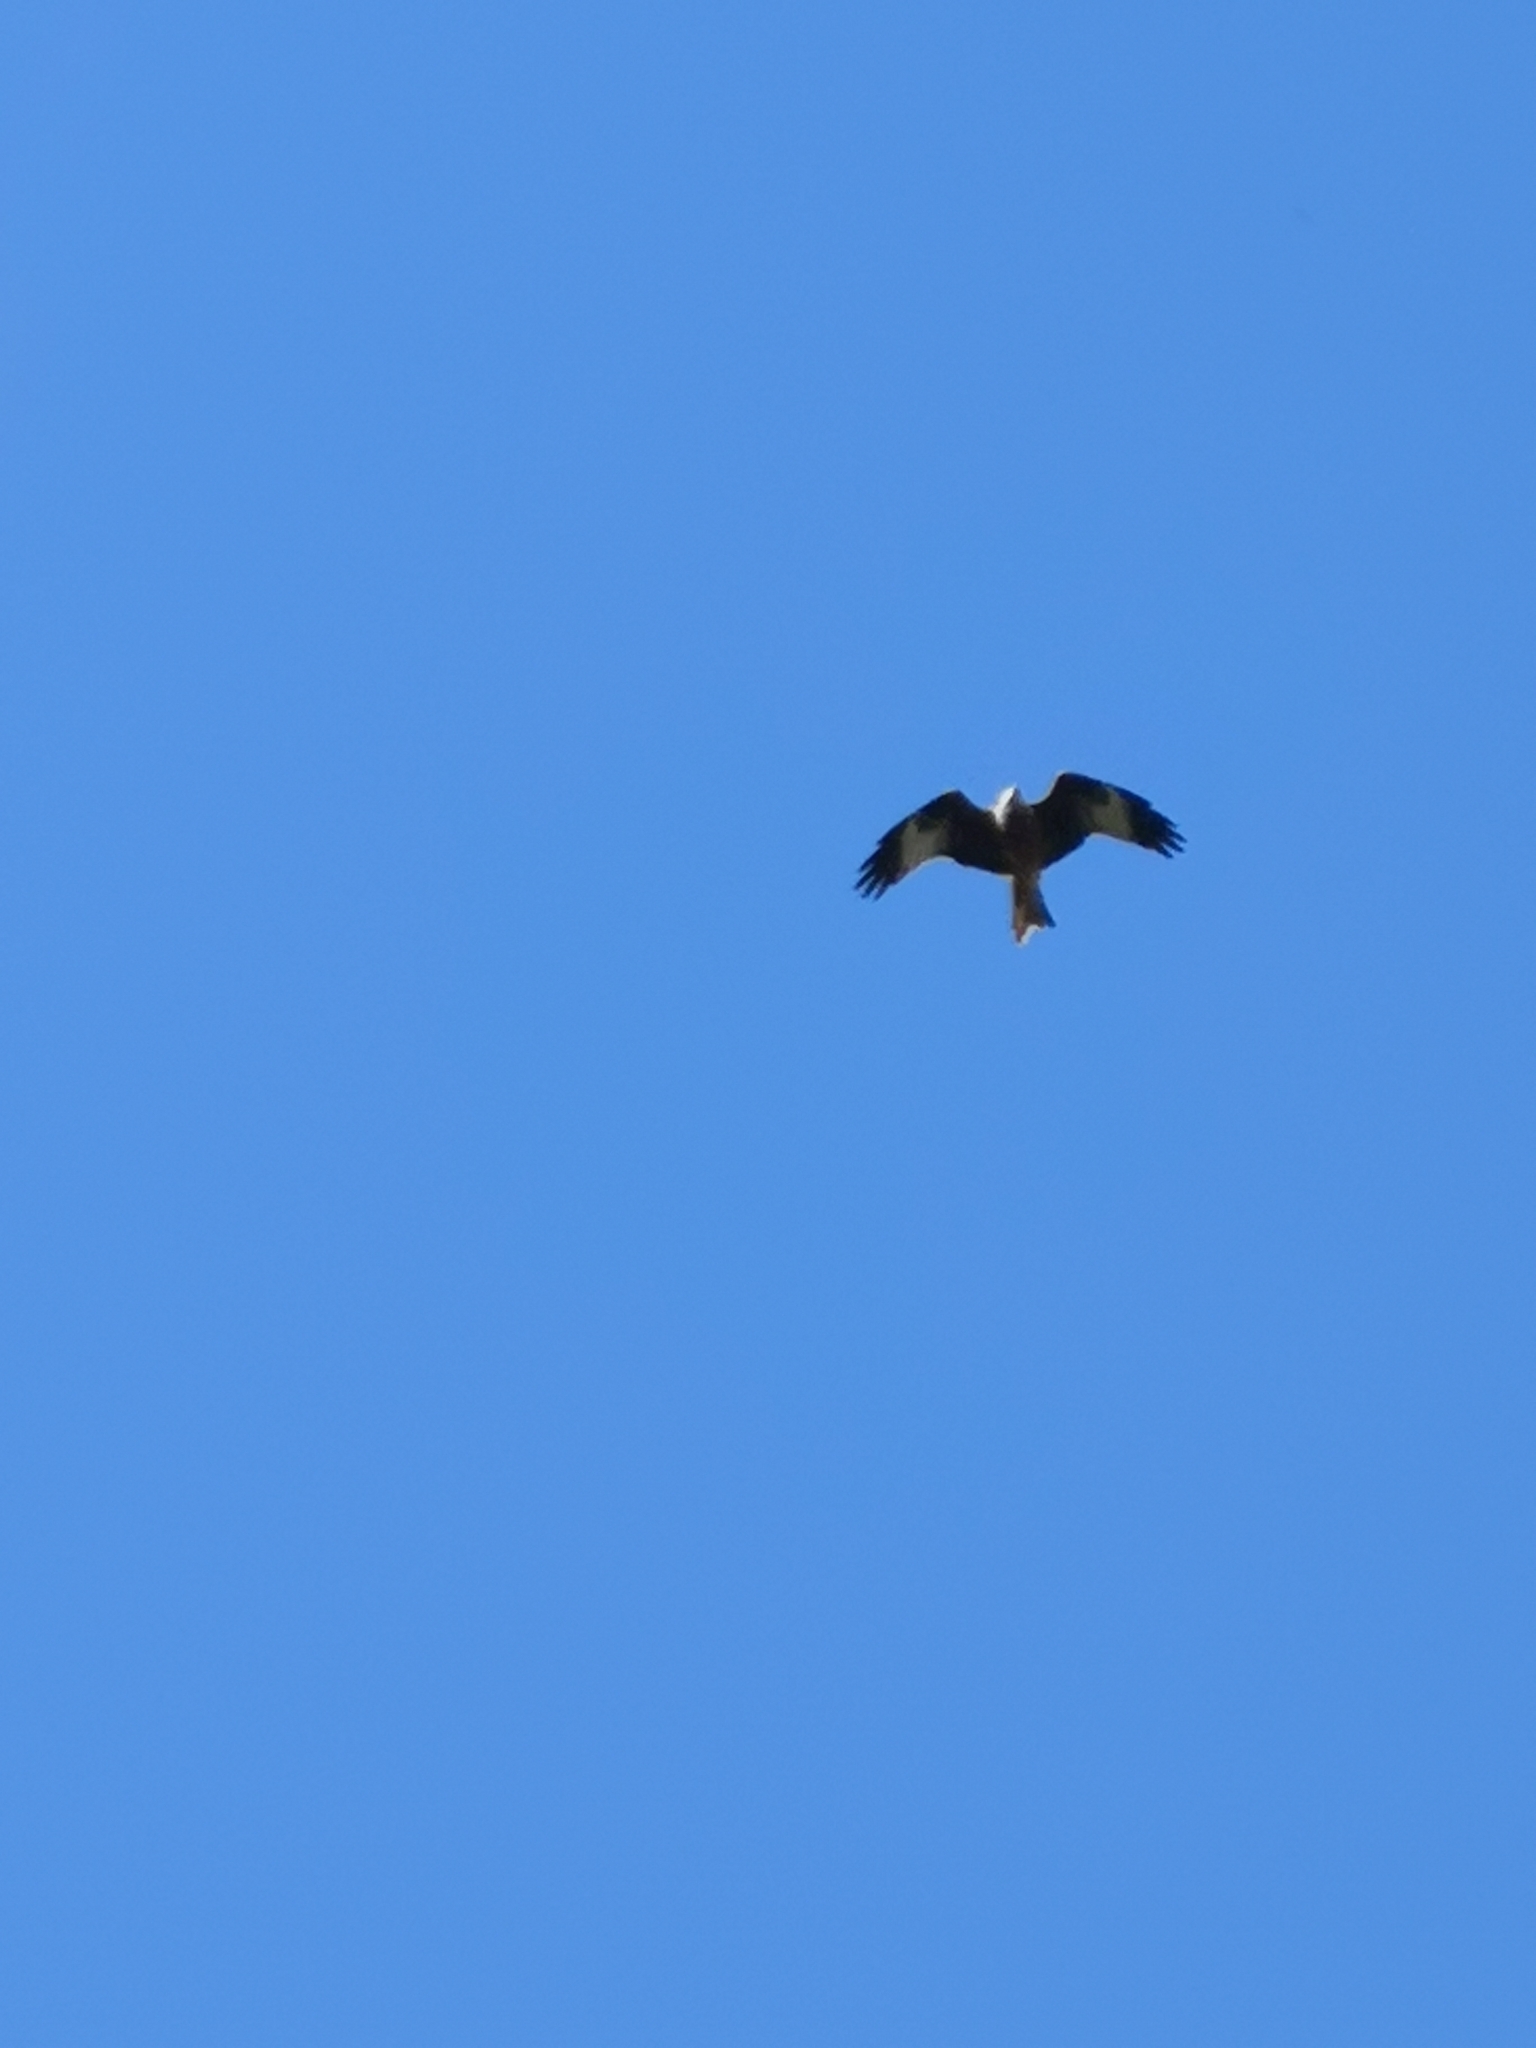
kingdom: Animalia
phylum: Chordata
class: Aves
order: Accipitriformes
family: Accipitridae
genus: Milvus
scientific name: Milvus milvus
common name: Red kite
